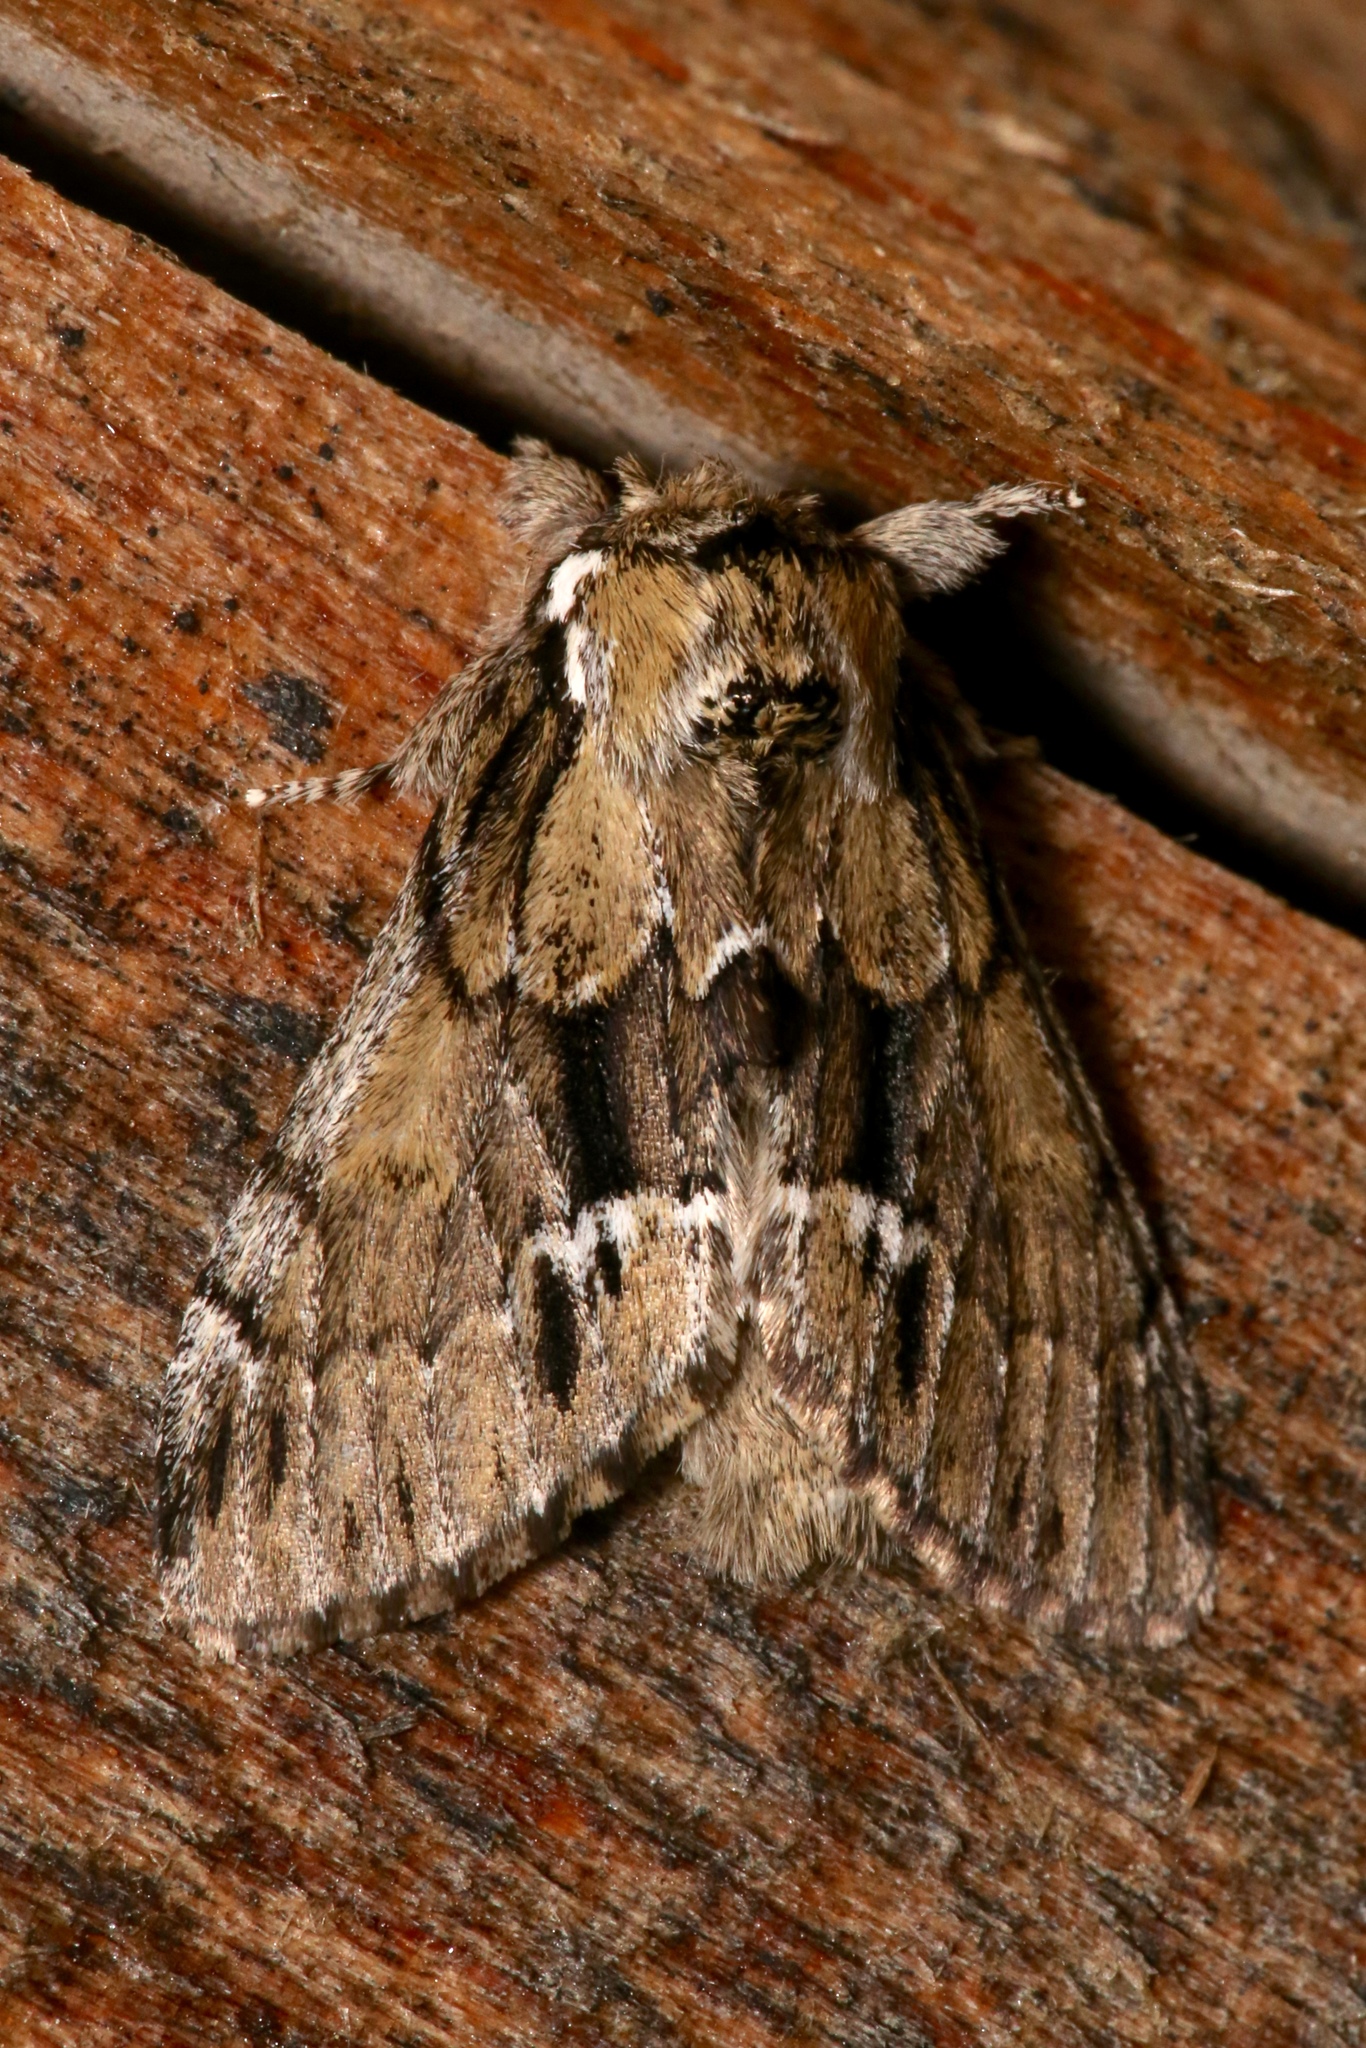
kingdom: Animalia
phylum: Arthropoda
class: Insecta
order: Lepidoptera
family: Notodontidae
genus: Paraeschra
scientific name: Paraeschra georgica
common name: Georgian prominent
